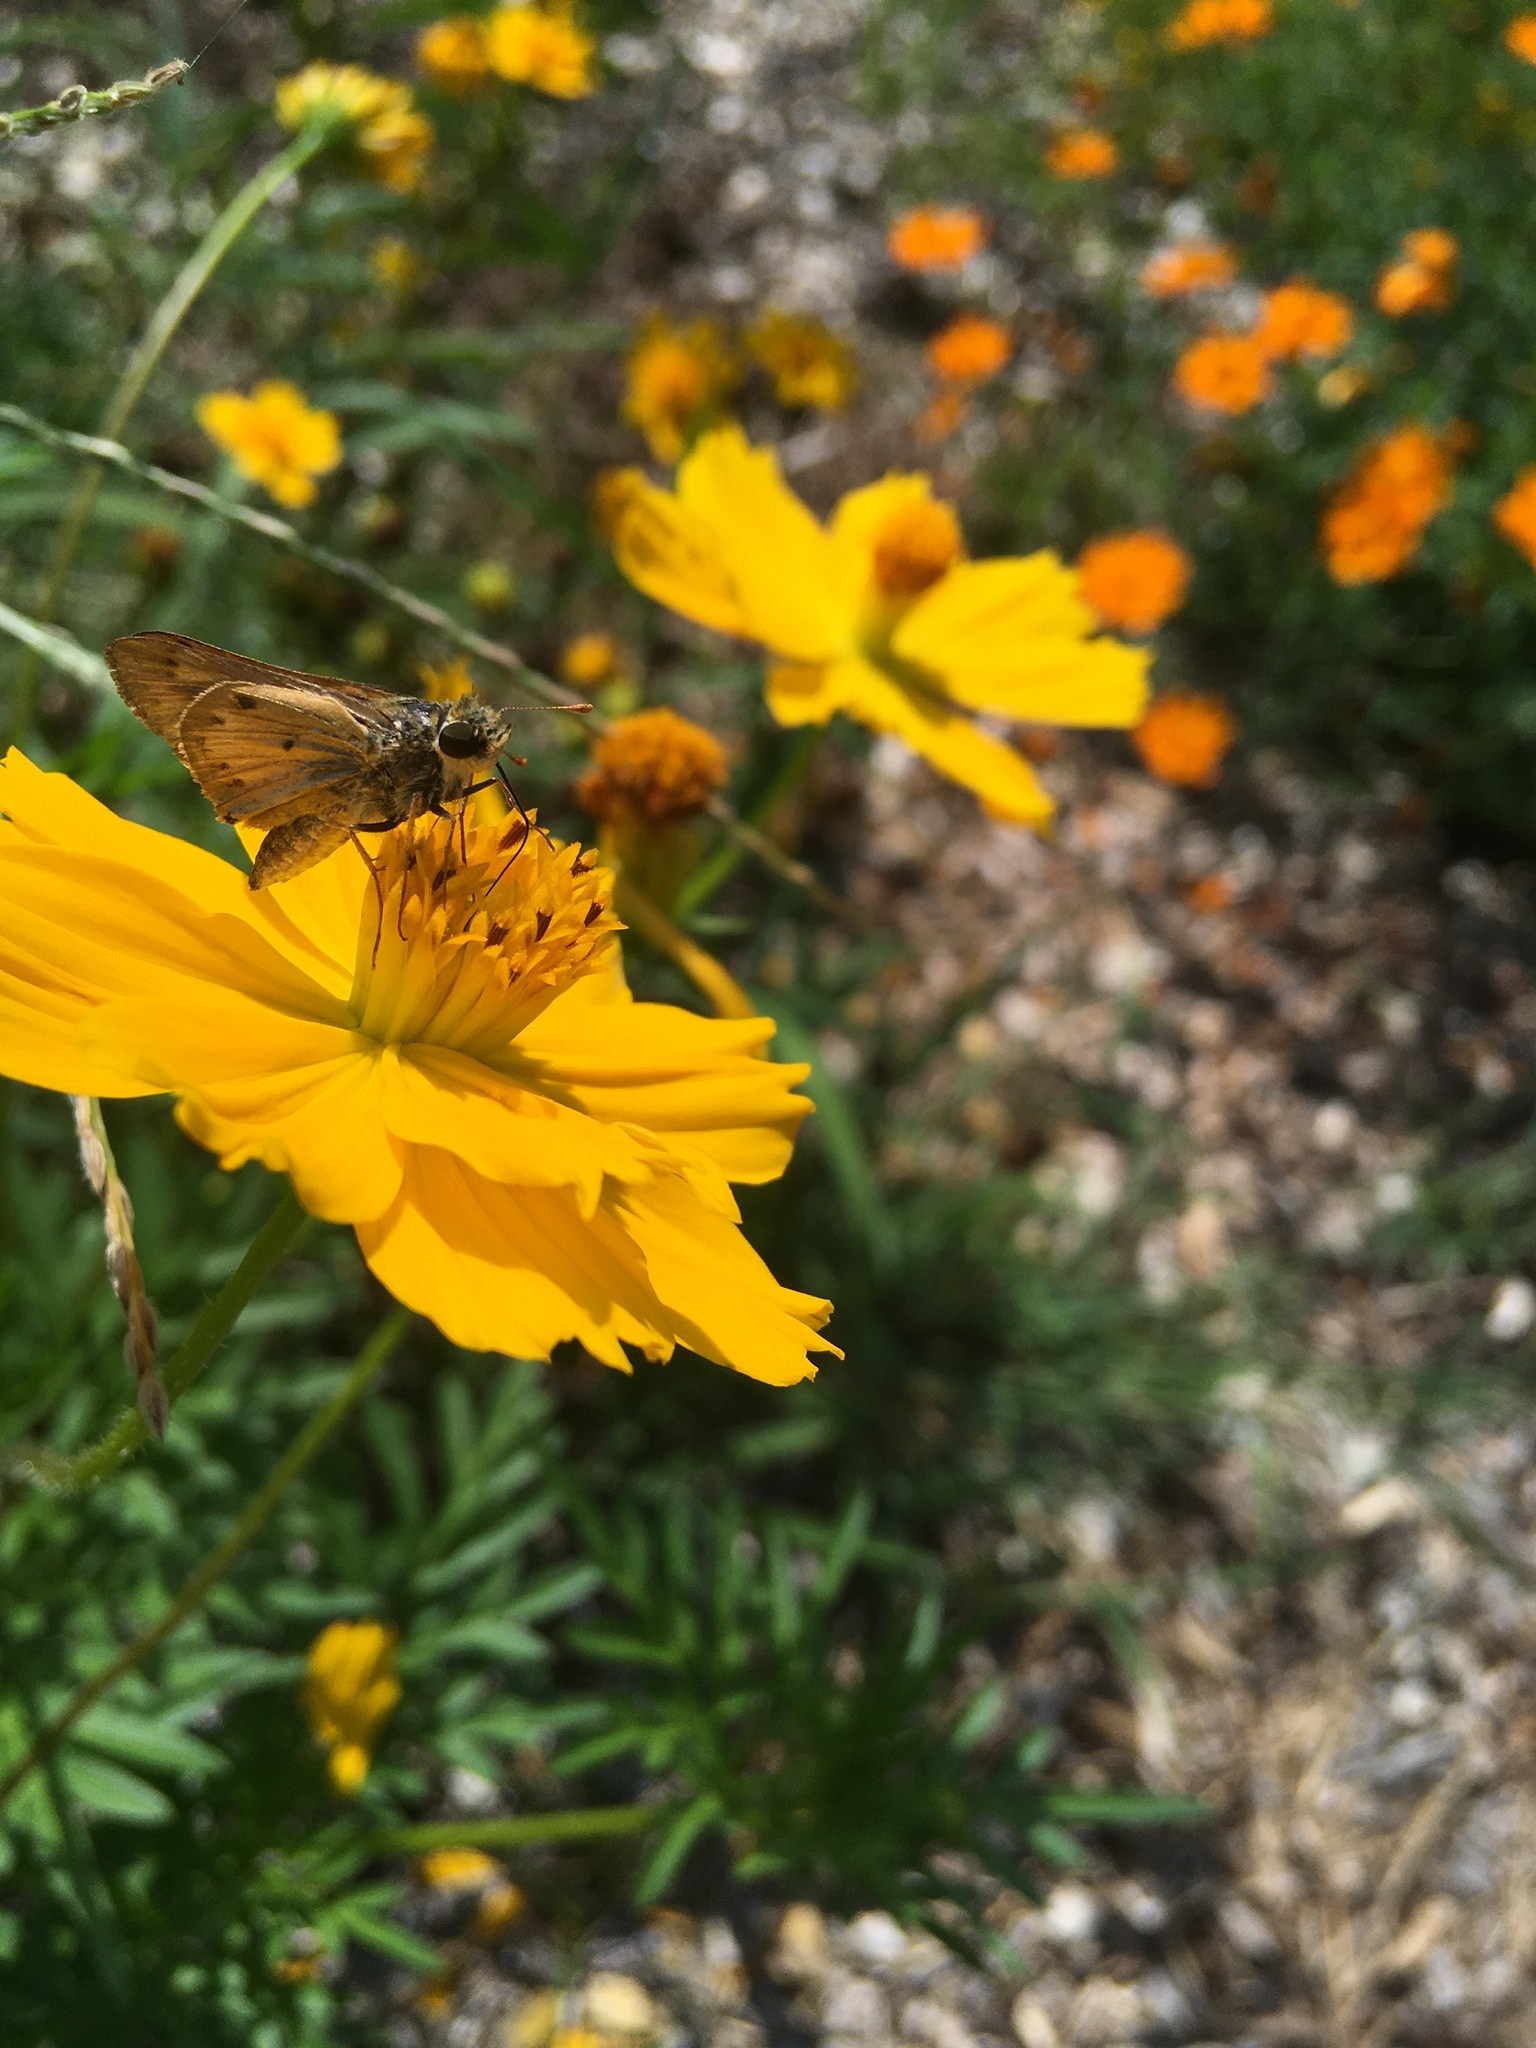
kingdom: Animalia
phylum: Arthropoda
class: Insecta
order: Lepidoptera
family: Hesperiidae
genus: Hylephila
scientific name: Hylephila phyleus
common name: Fiery skipper
